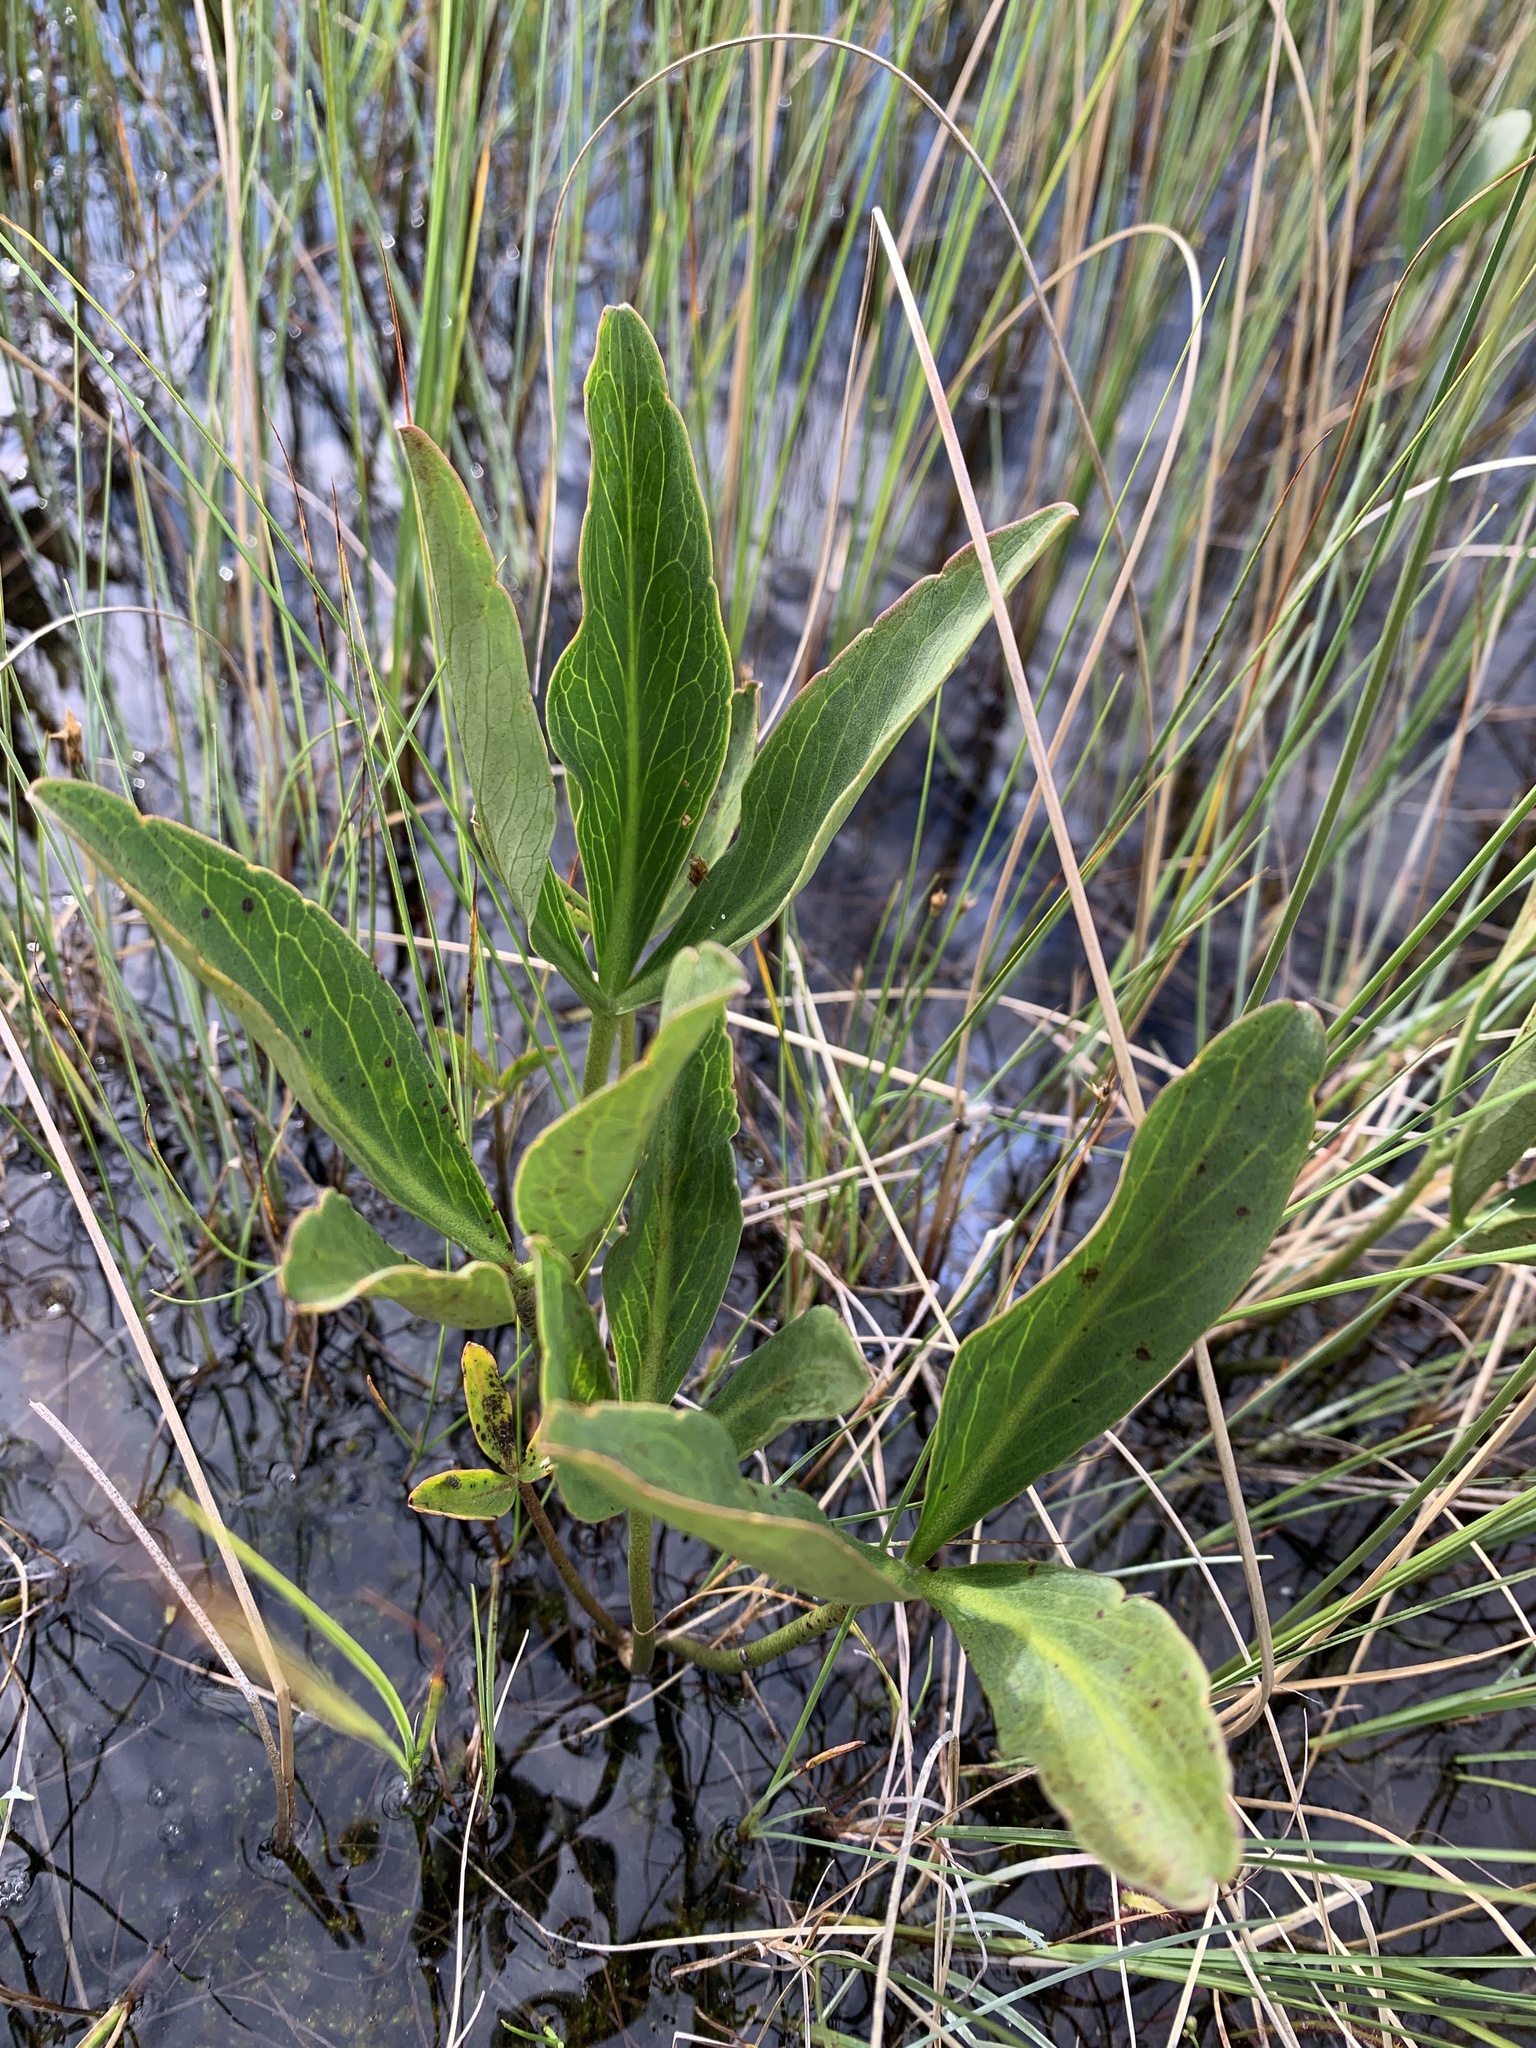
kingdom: Plantae
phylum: Tracheophyta
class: Magnoliopsida
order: Asterales
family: Menyanthaceae
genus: Menyanthes
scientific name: Menyanthes trifoliata
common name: Bogbean
